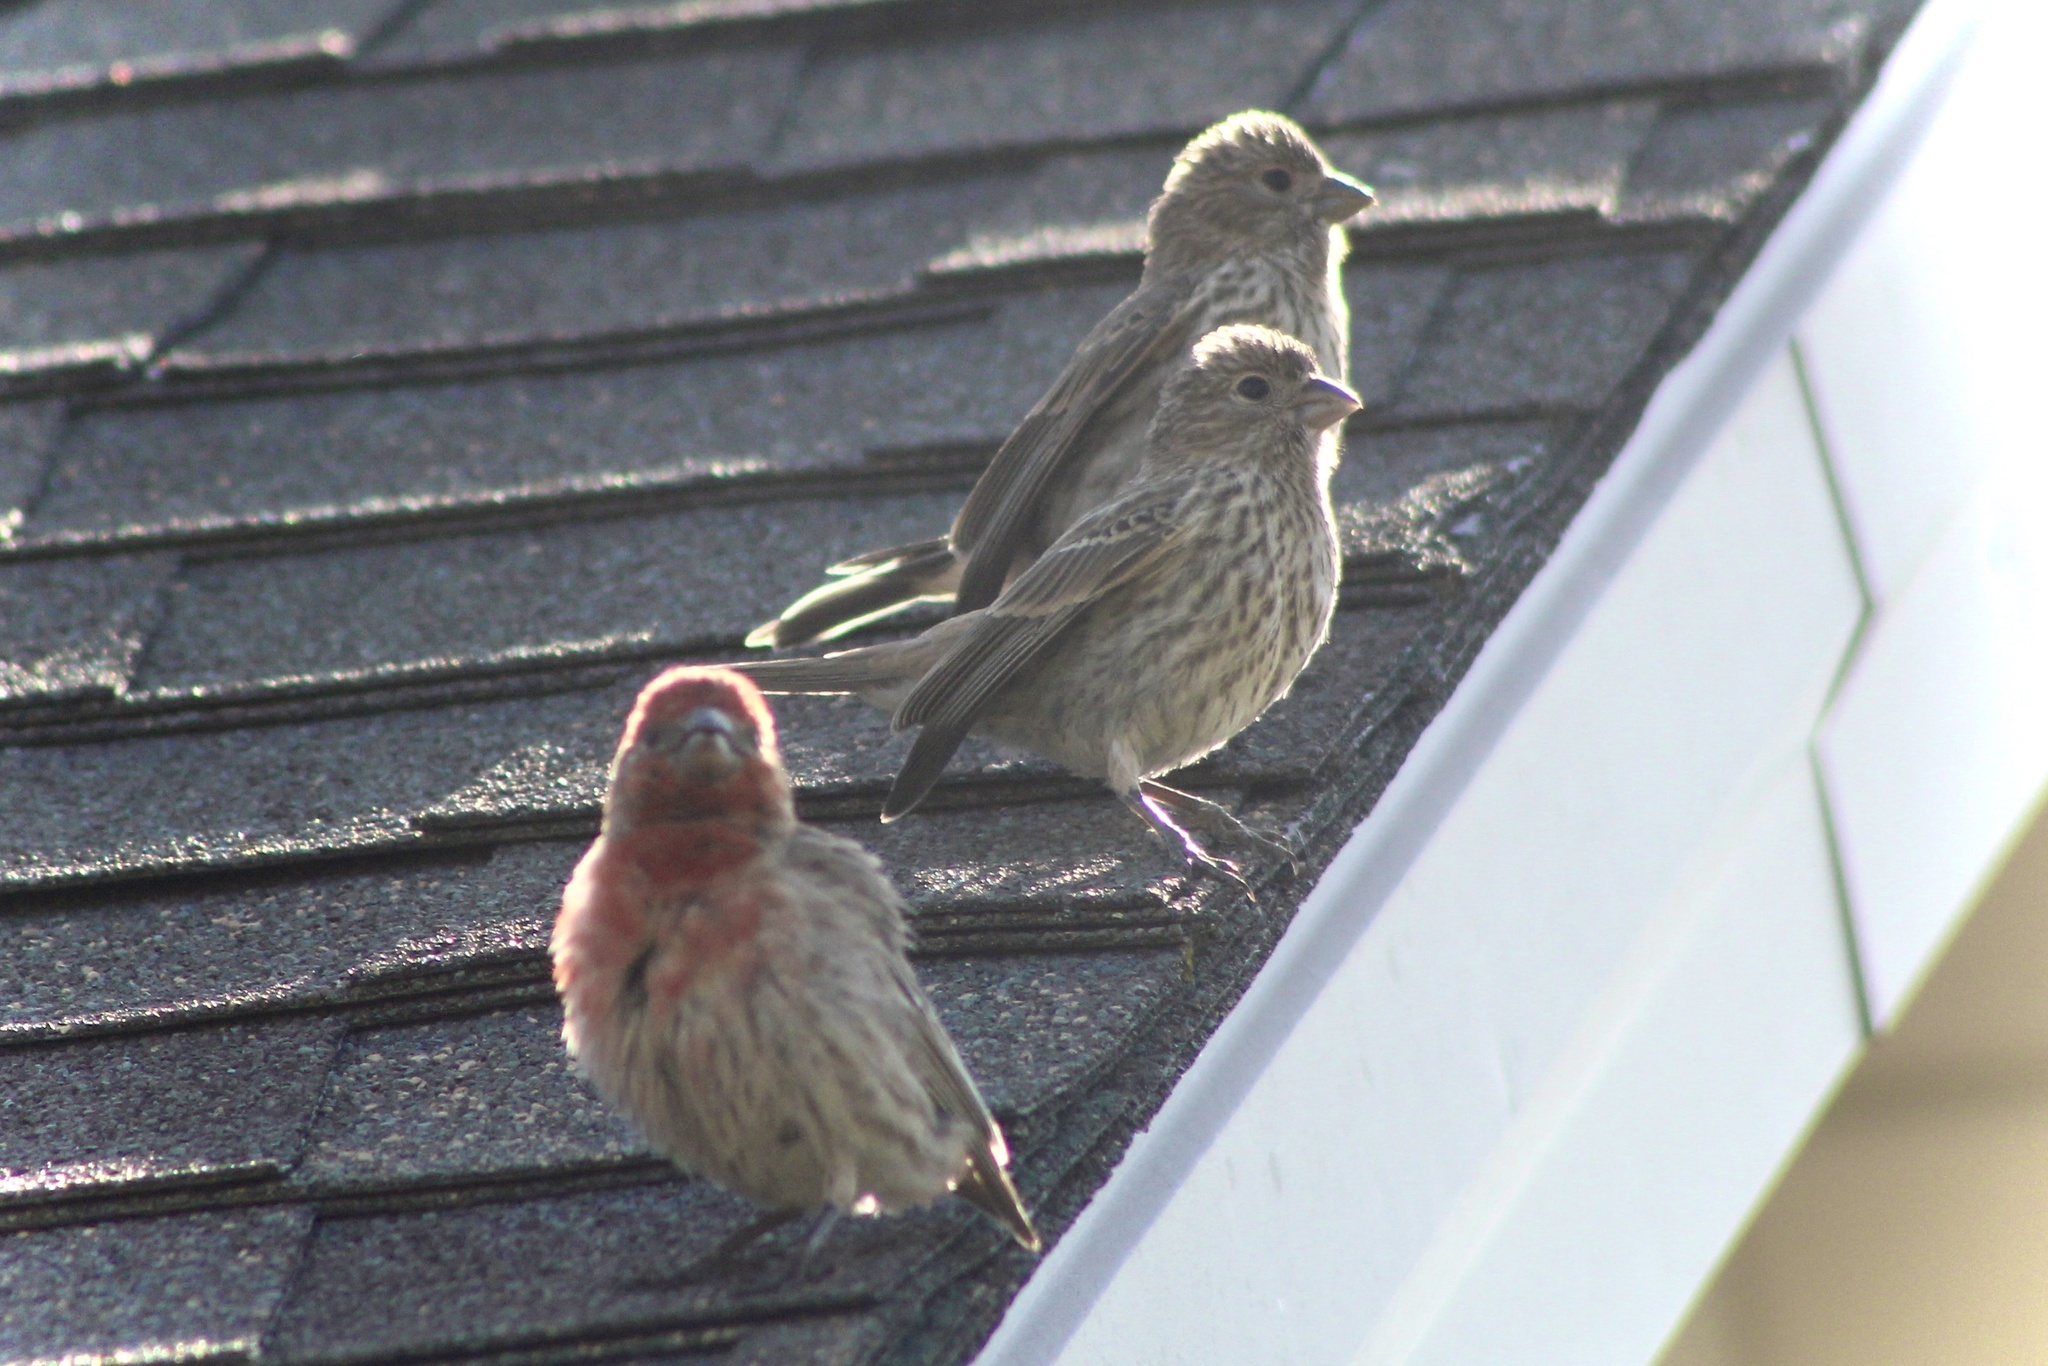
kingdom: Animalia
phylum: Chordata
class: Aves
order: Passeriformes
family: Fringillidae
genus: Haemorhous
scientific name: Haemorhous mexicanus
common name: House finch
